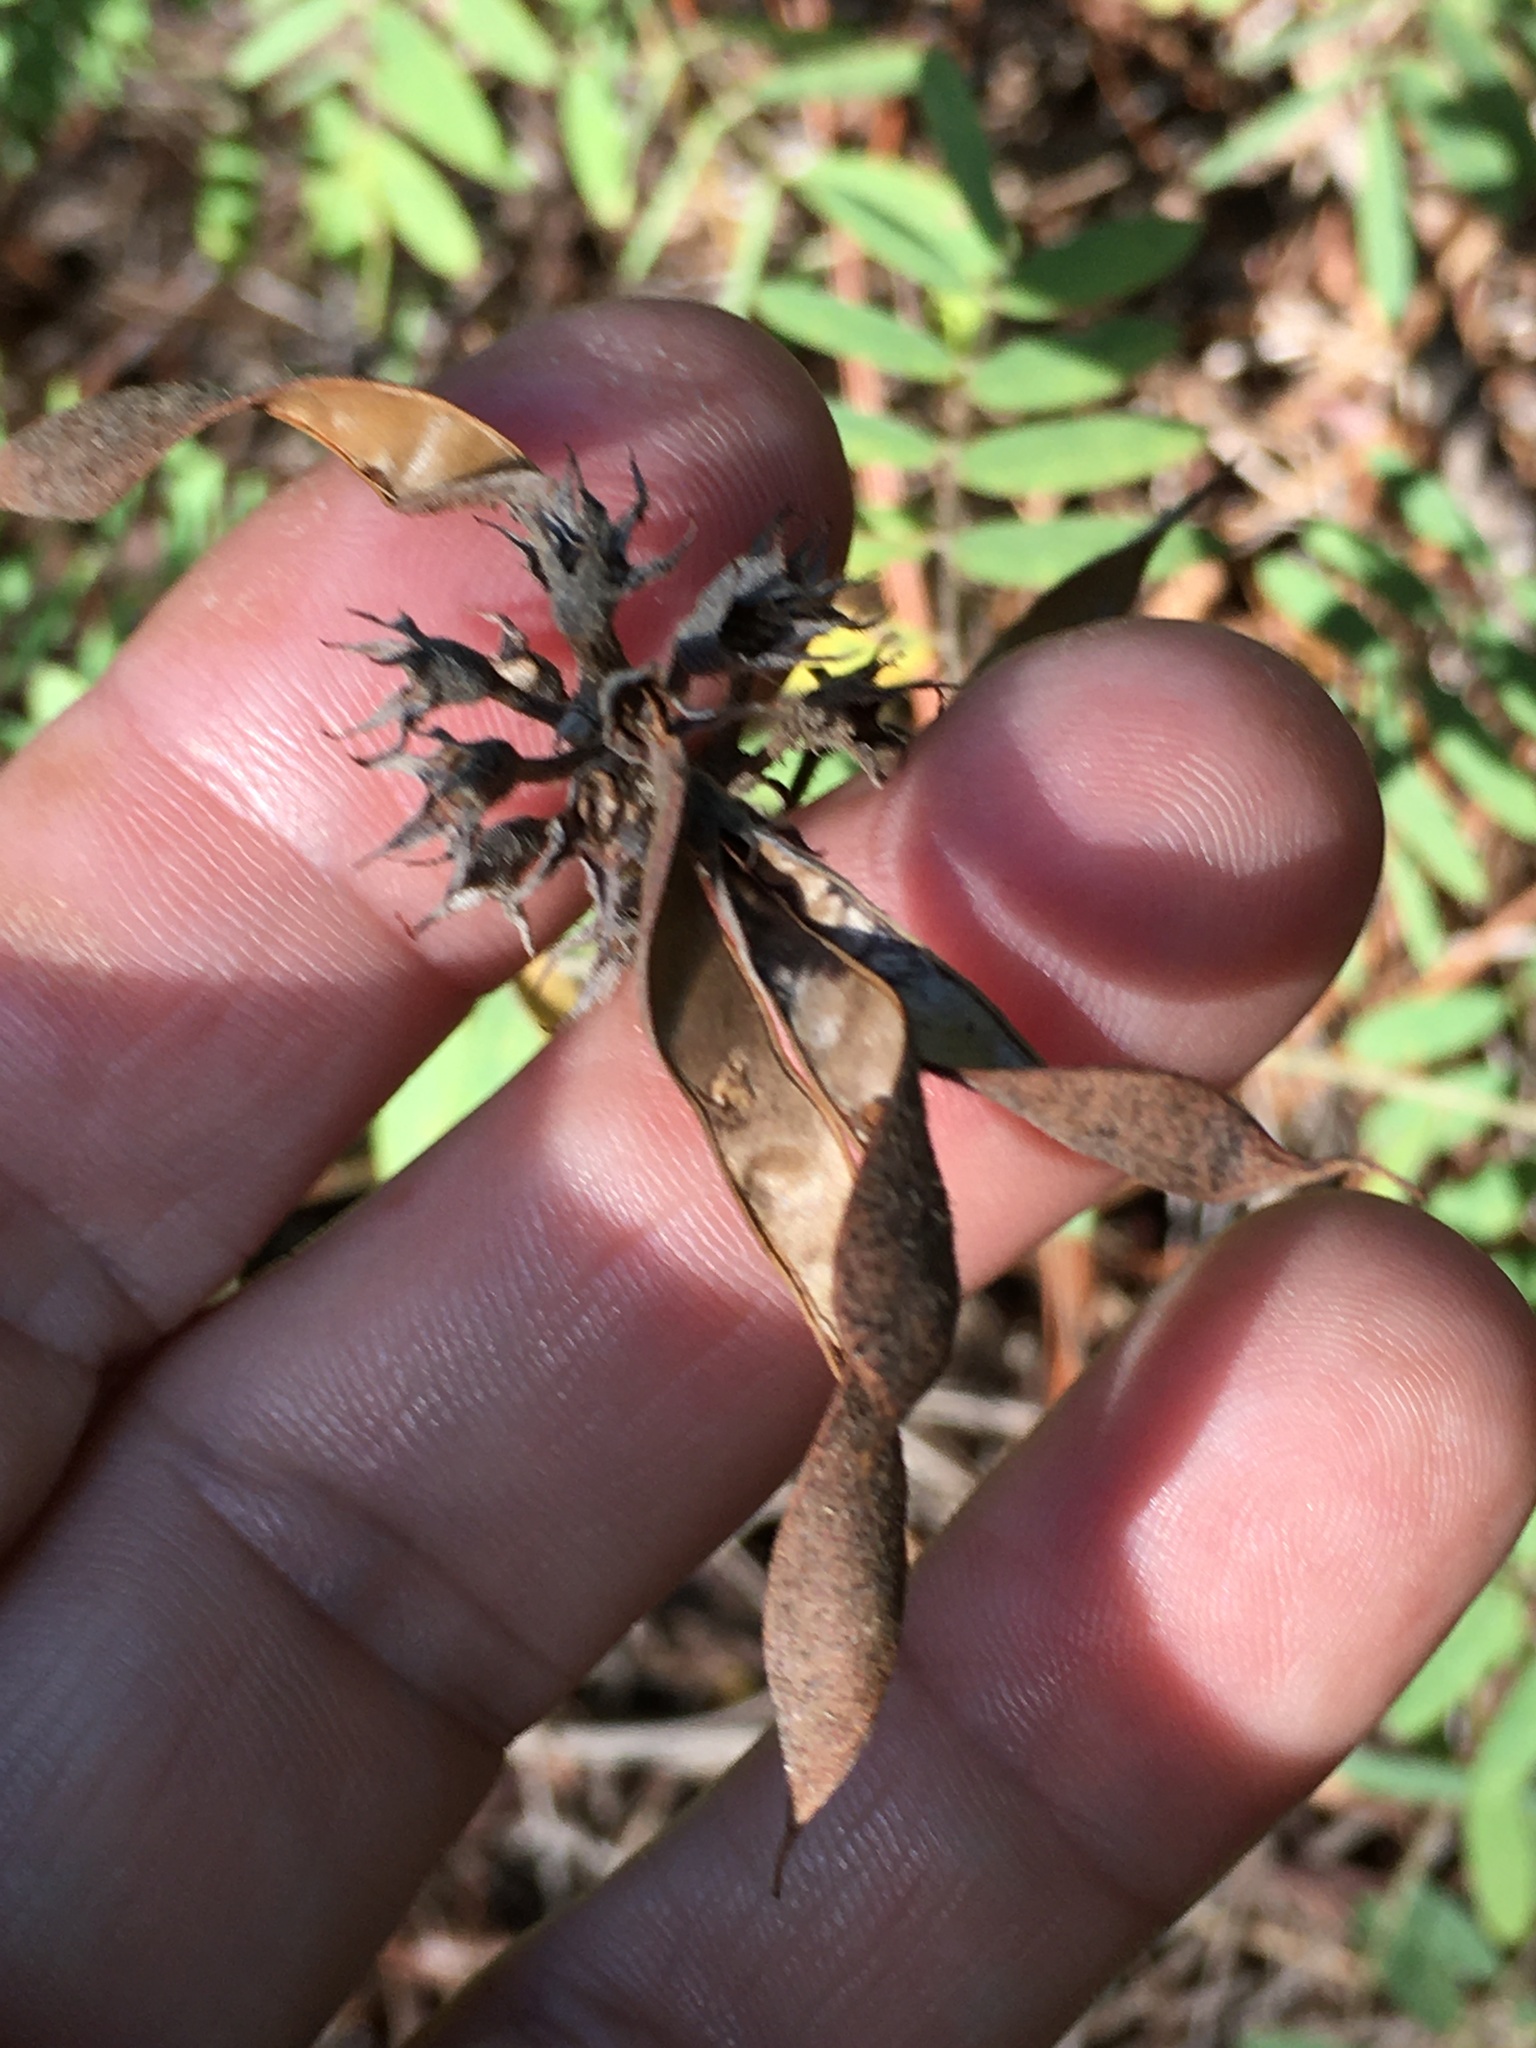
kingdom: Plantae
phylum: Tracheophyta
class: Magnoliopsida
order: Fabales
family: Fabaceae
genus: Tephrosia
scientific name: Tephrosia virginiana
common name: Rabbit-pea
